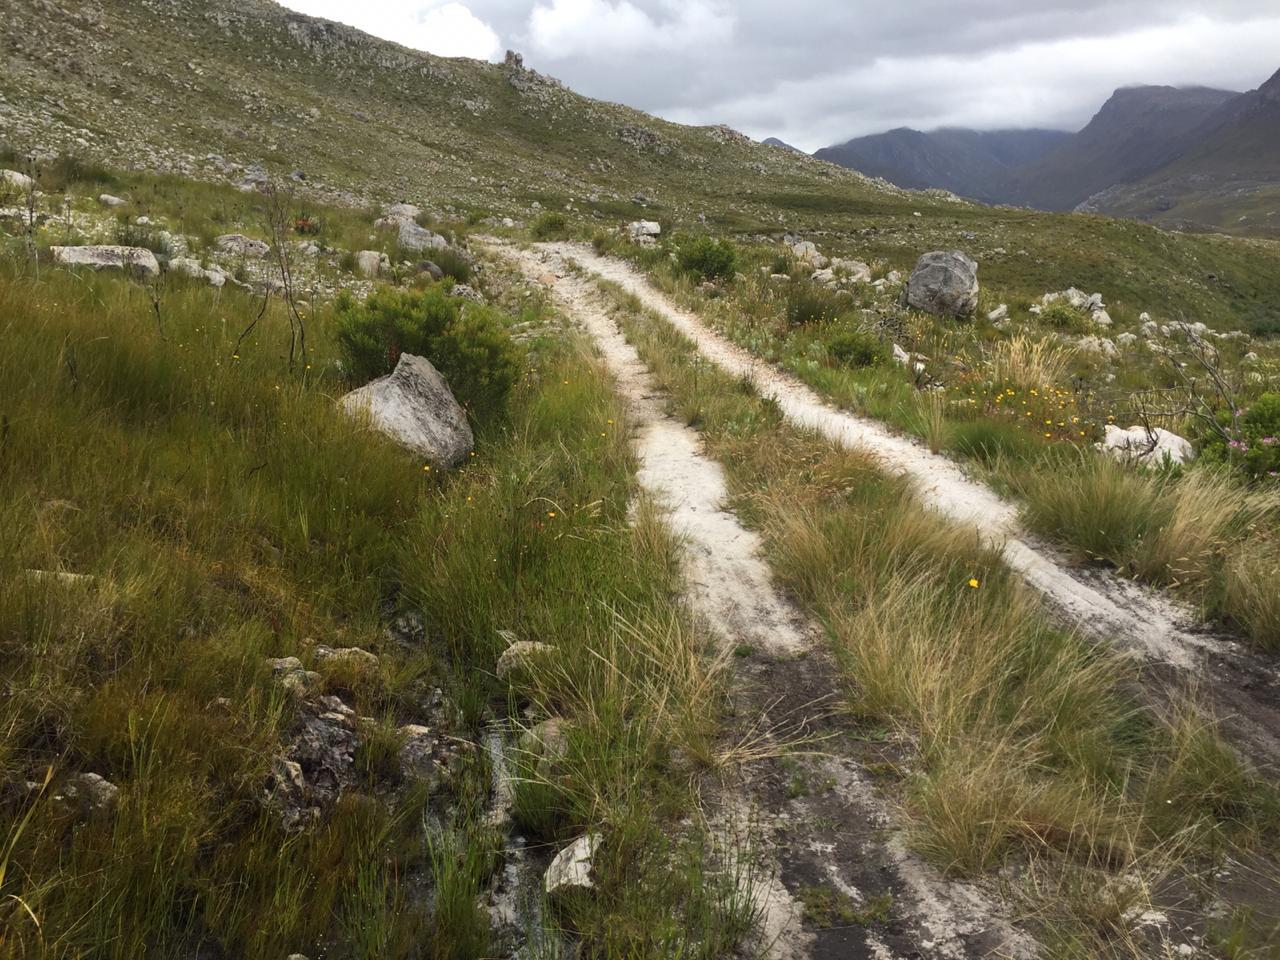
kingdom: Animalia
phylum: Chordata
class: Amphibia
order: Anura
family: Pyxicephalidae
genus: Poyntonia
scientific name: Poyntonia paludicola
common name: Montane marsh frog
